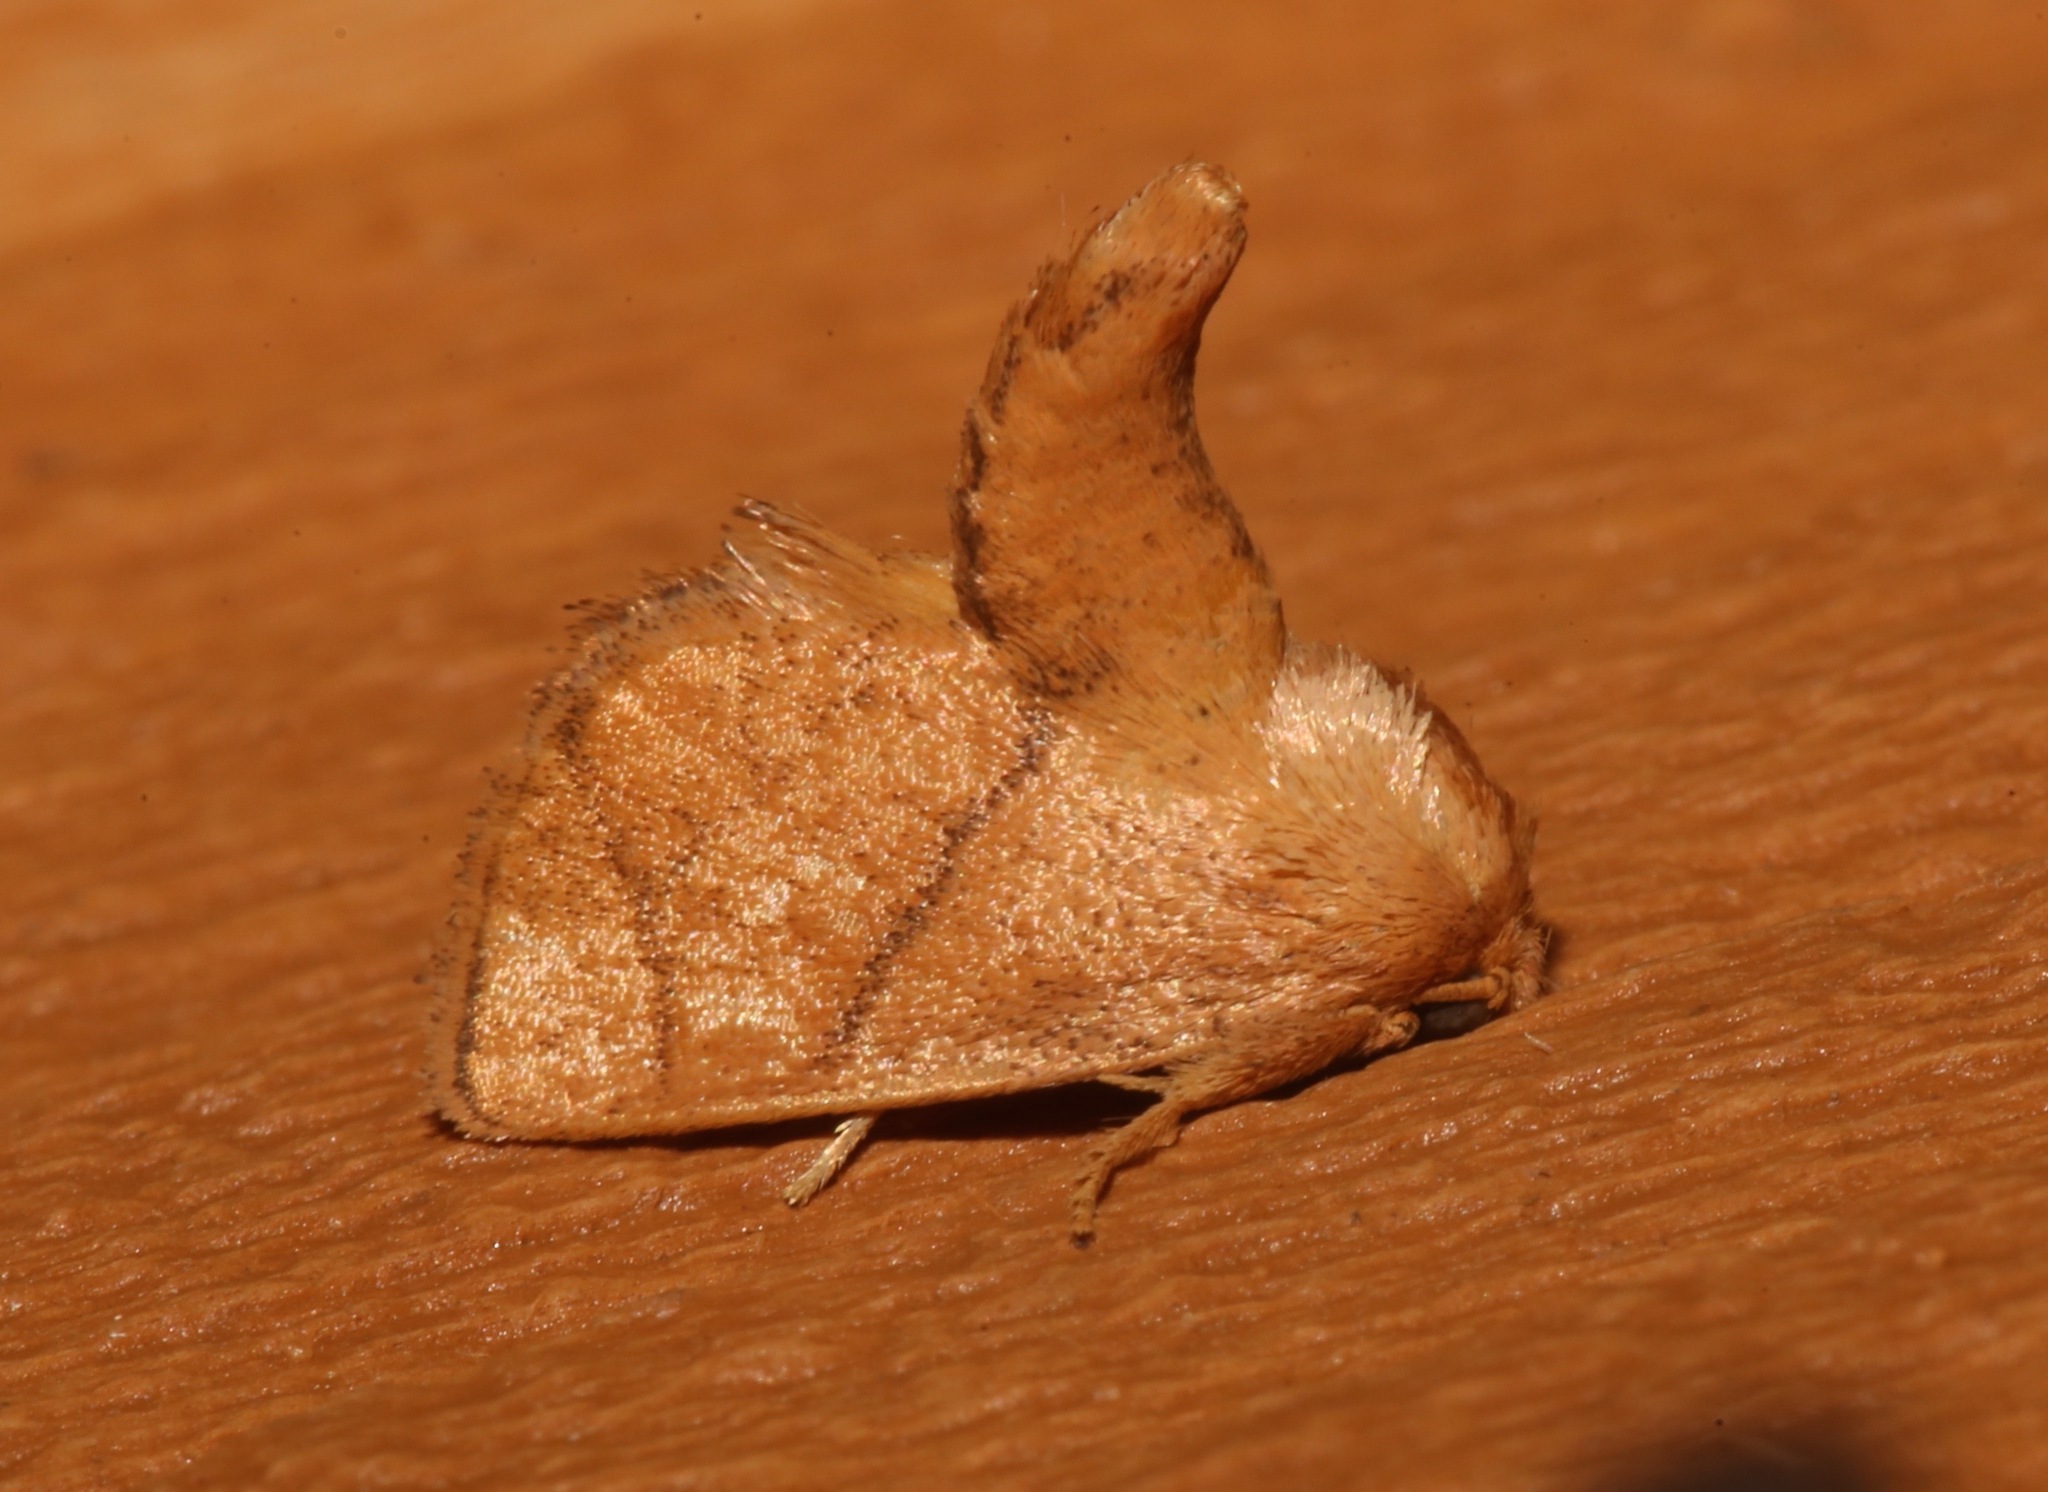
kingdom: Animalia
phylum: Arthropoda
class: Insecta
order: Lepidoptera
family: Limacodidae
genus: Apoda
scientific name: Apoda y-inversa
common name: Yellow-collared slug moth
